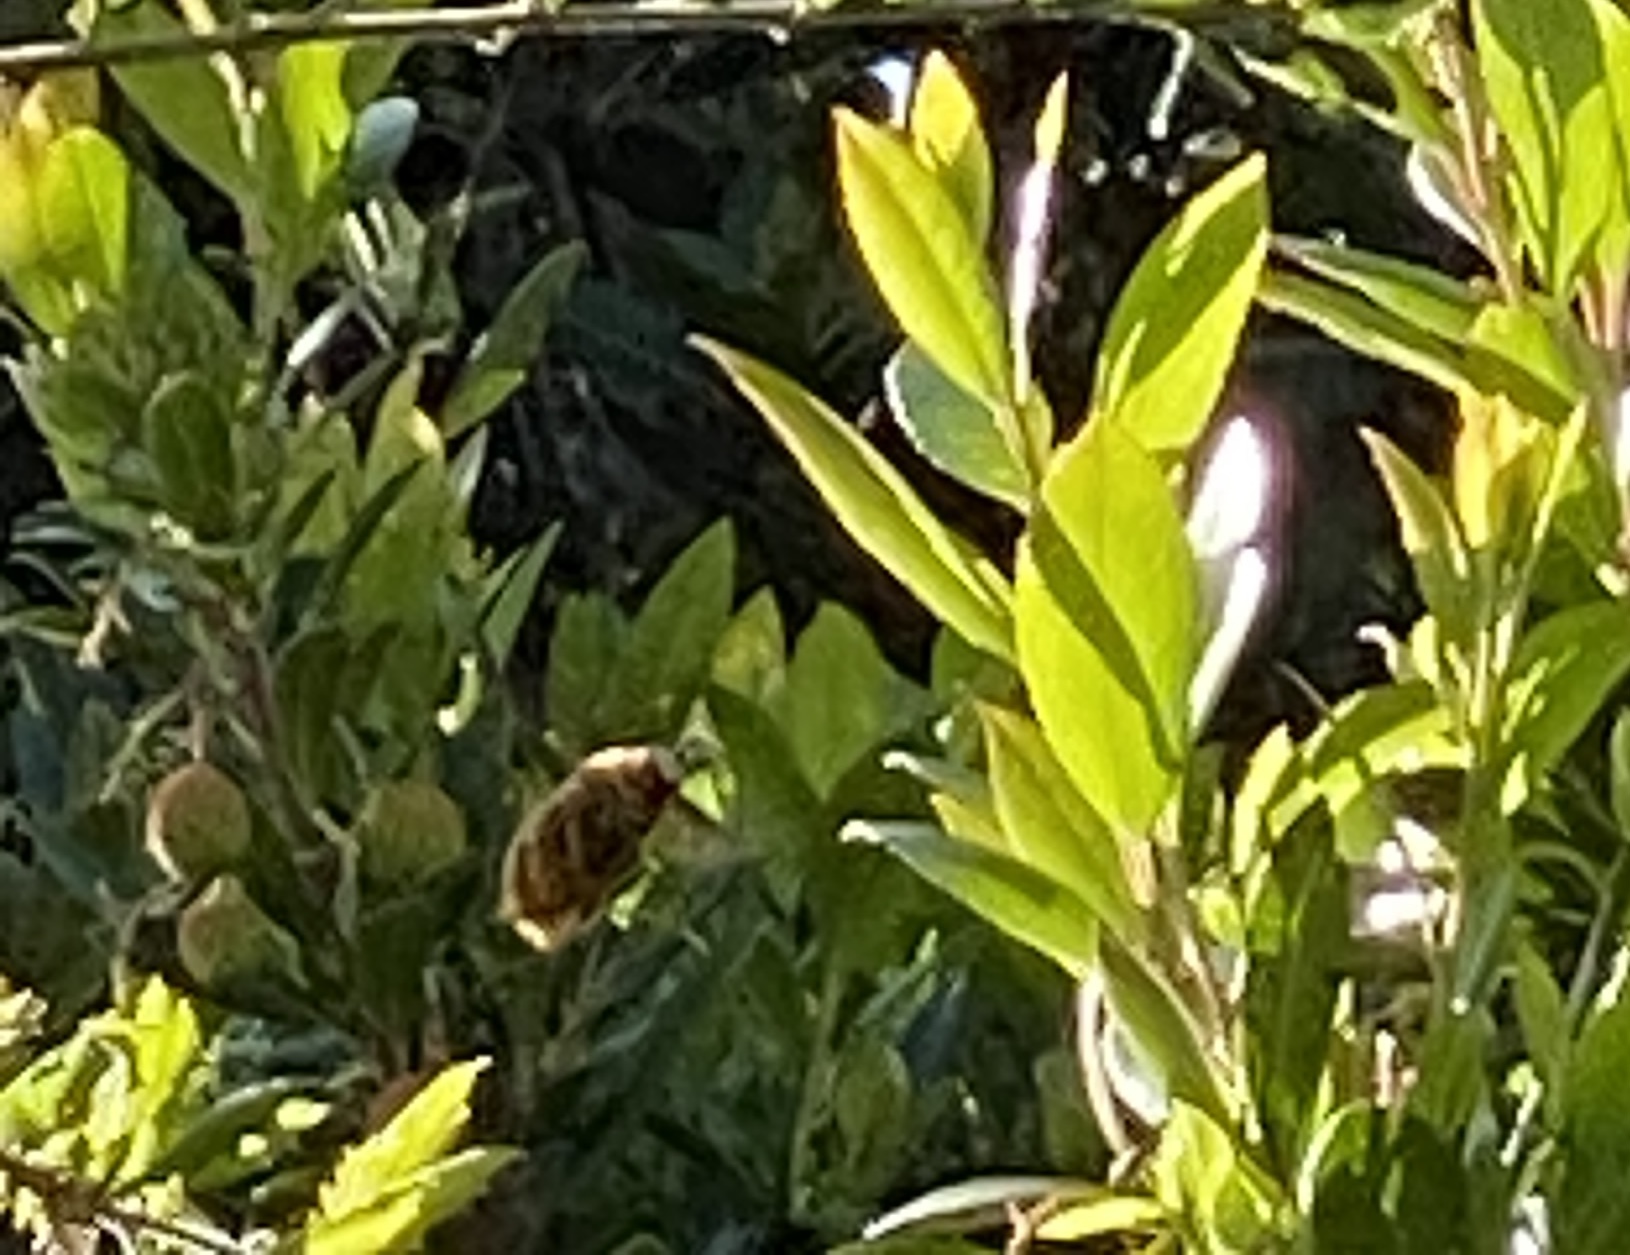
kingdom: Animalia
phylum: Arthropoda
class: Insecta
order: Hymenoptera
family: Apidae
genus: Xylocopa
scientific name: Xylocopa sonorina
